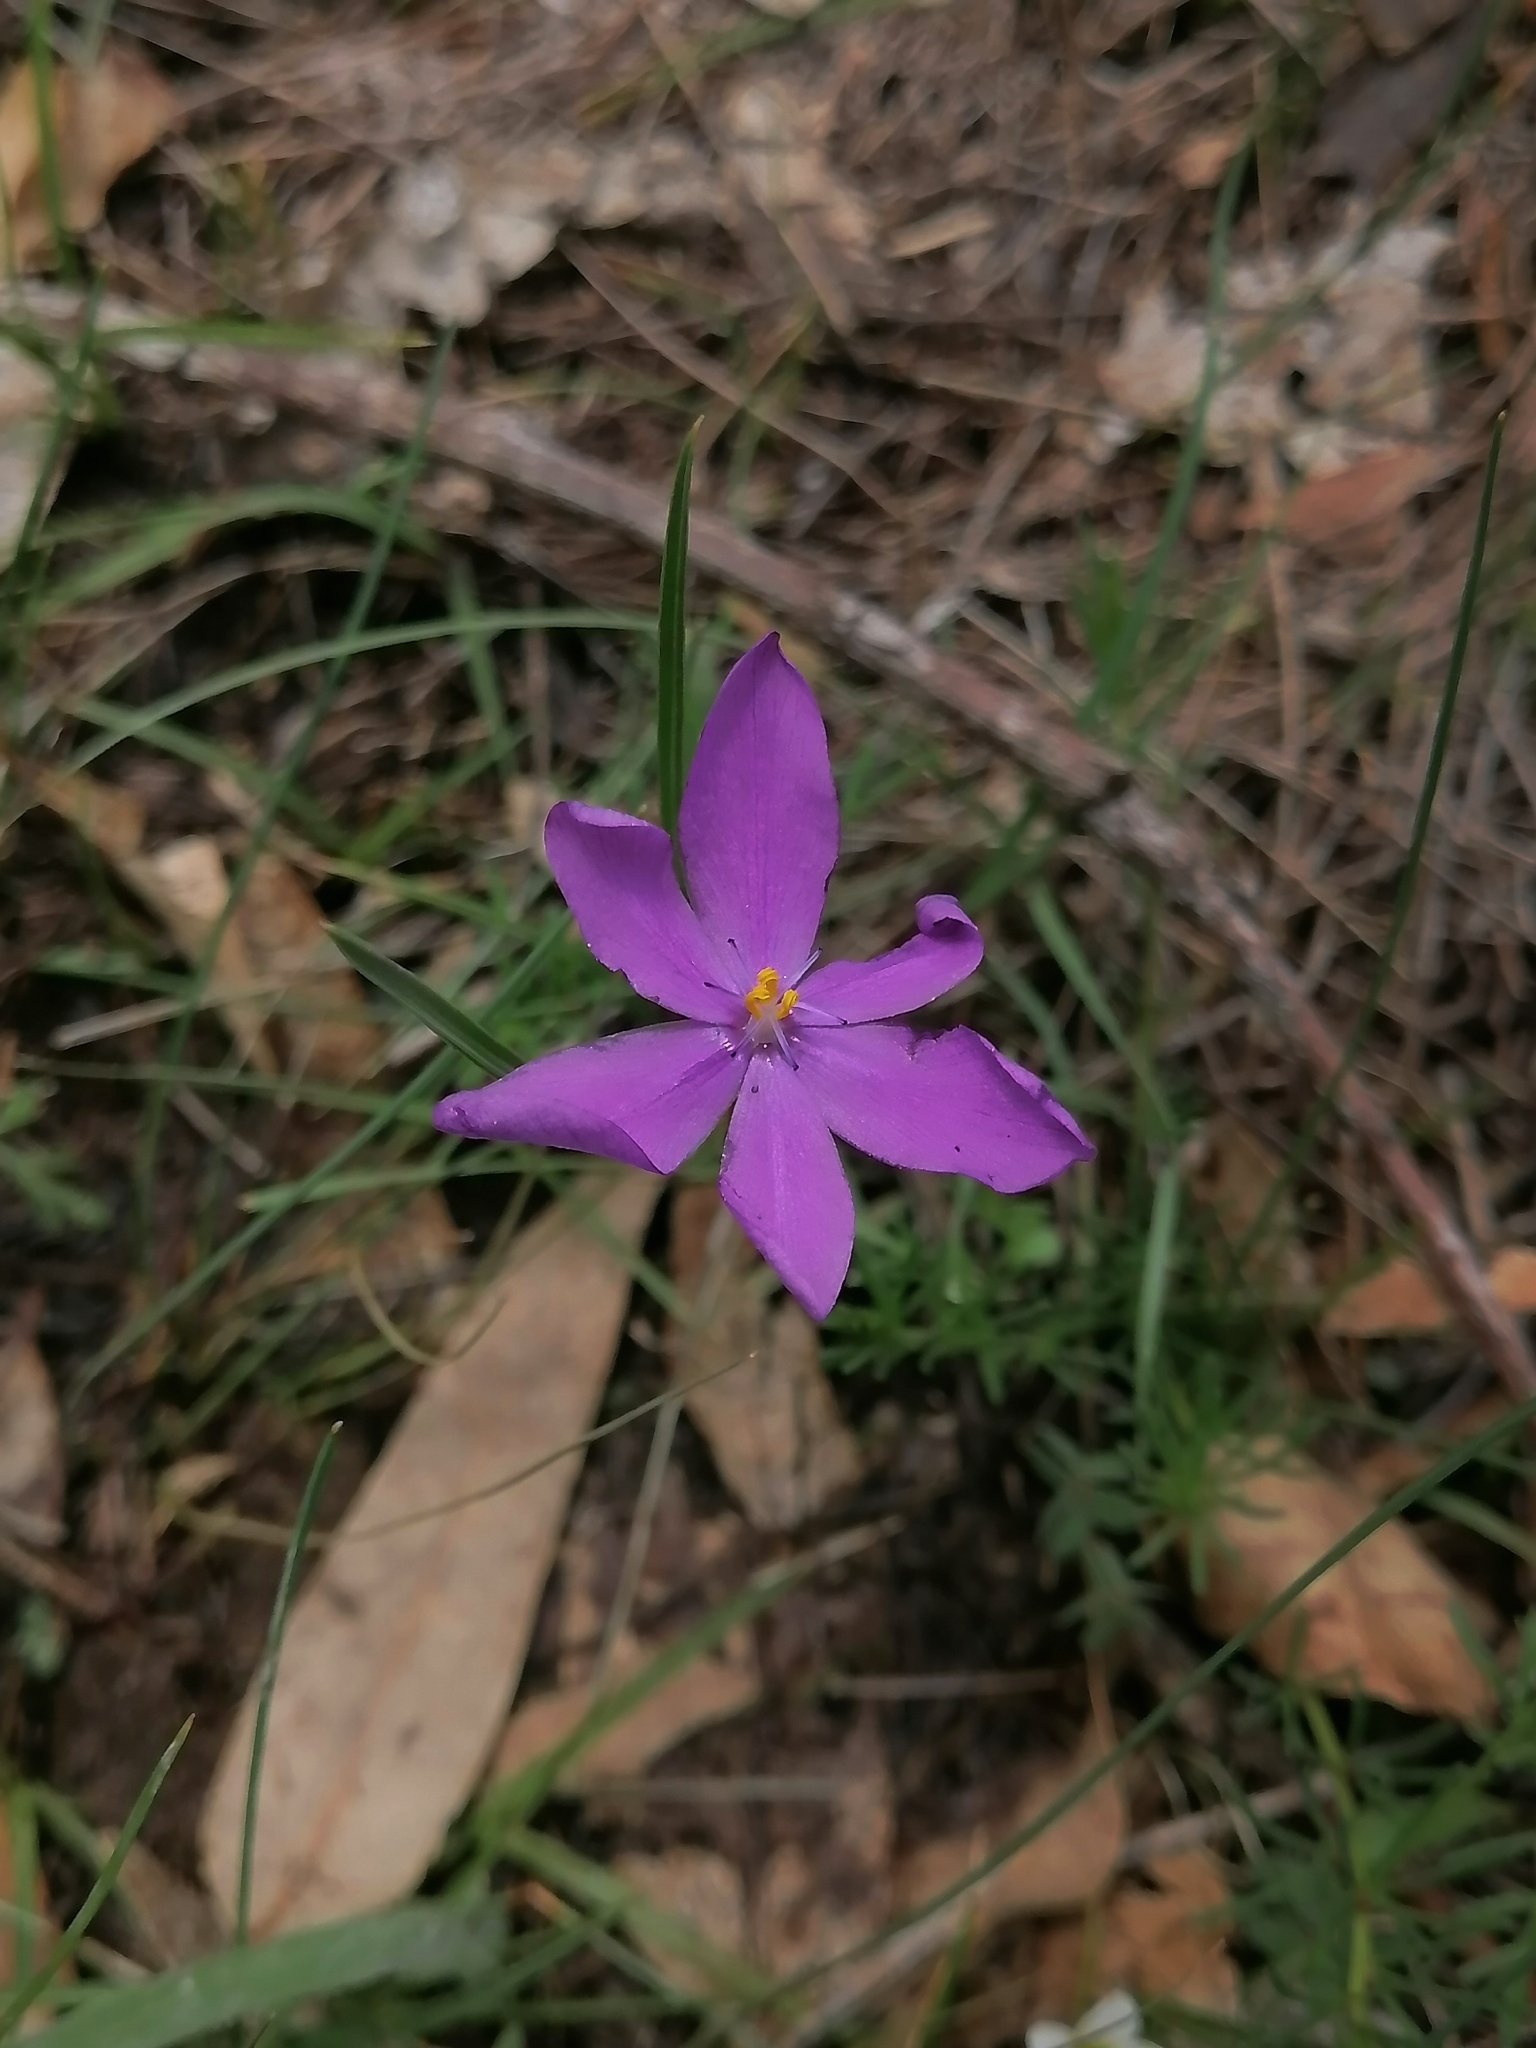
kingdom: Plantae
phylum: Tracheophyta
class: Liliopsida
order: Asparagales
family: Iridaceae
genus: Nemastylis
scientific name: Nemastylis tenuis
